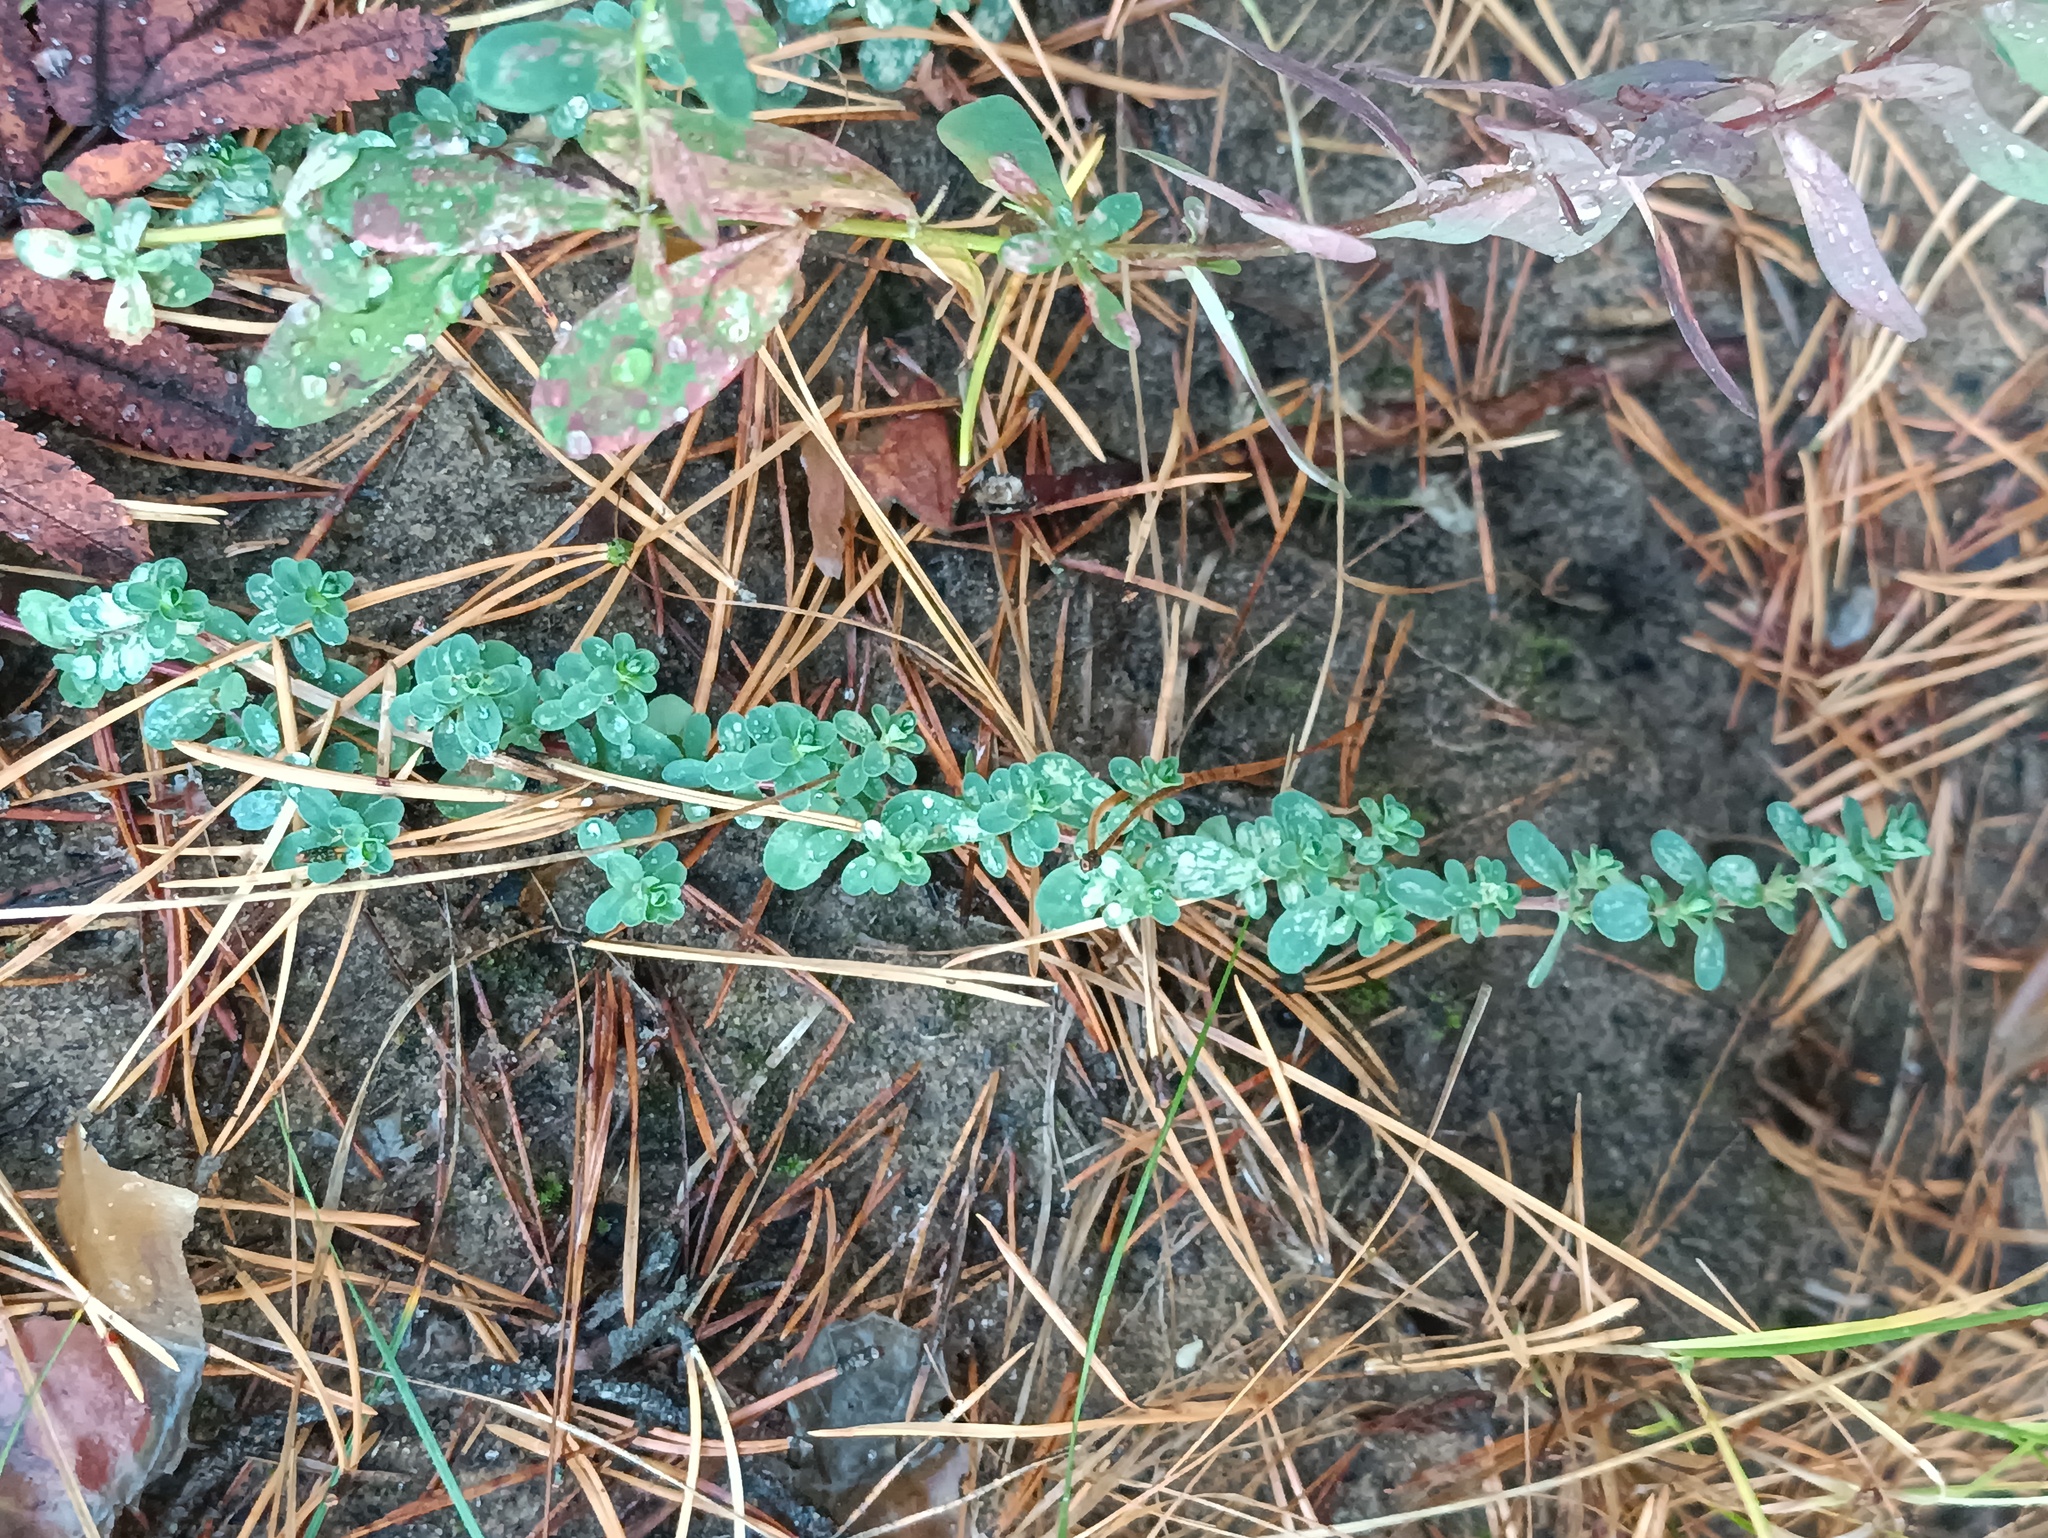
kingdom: Plantae
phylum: Tracheophyta
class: Magnoliopsida
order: Malpighiales
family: Hypericaceae
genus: Hypericum
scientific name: Hypericum perforatum
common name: Common st. johnswort
